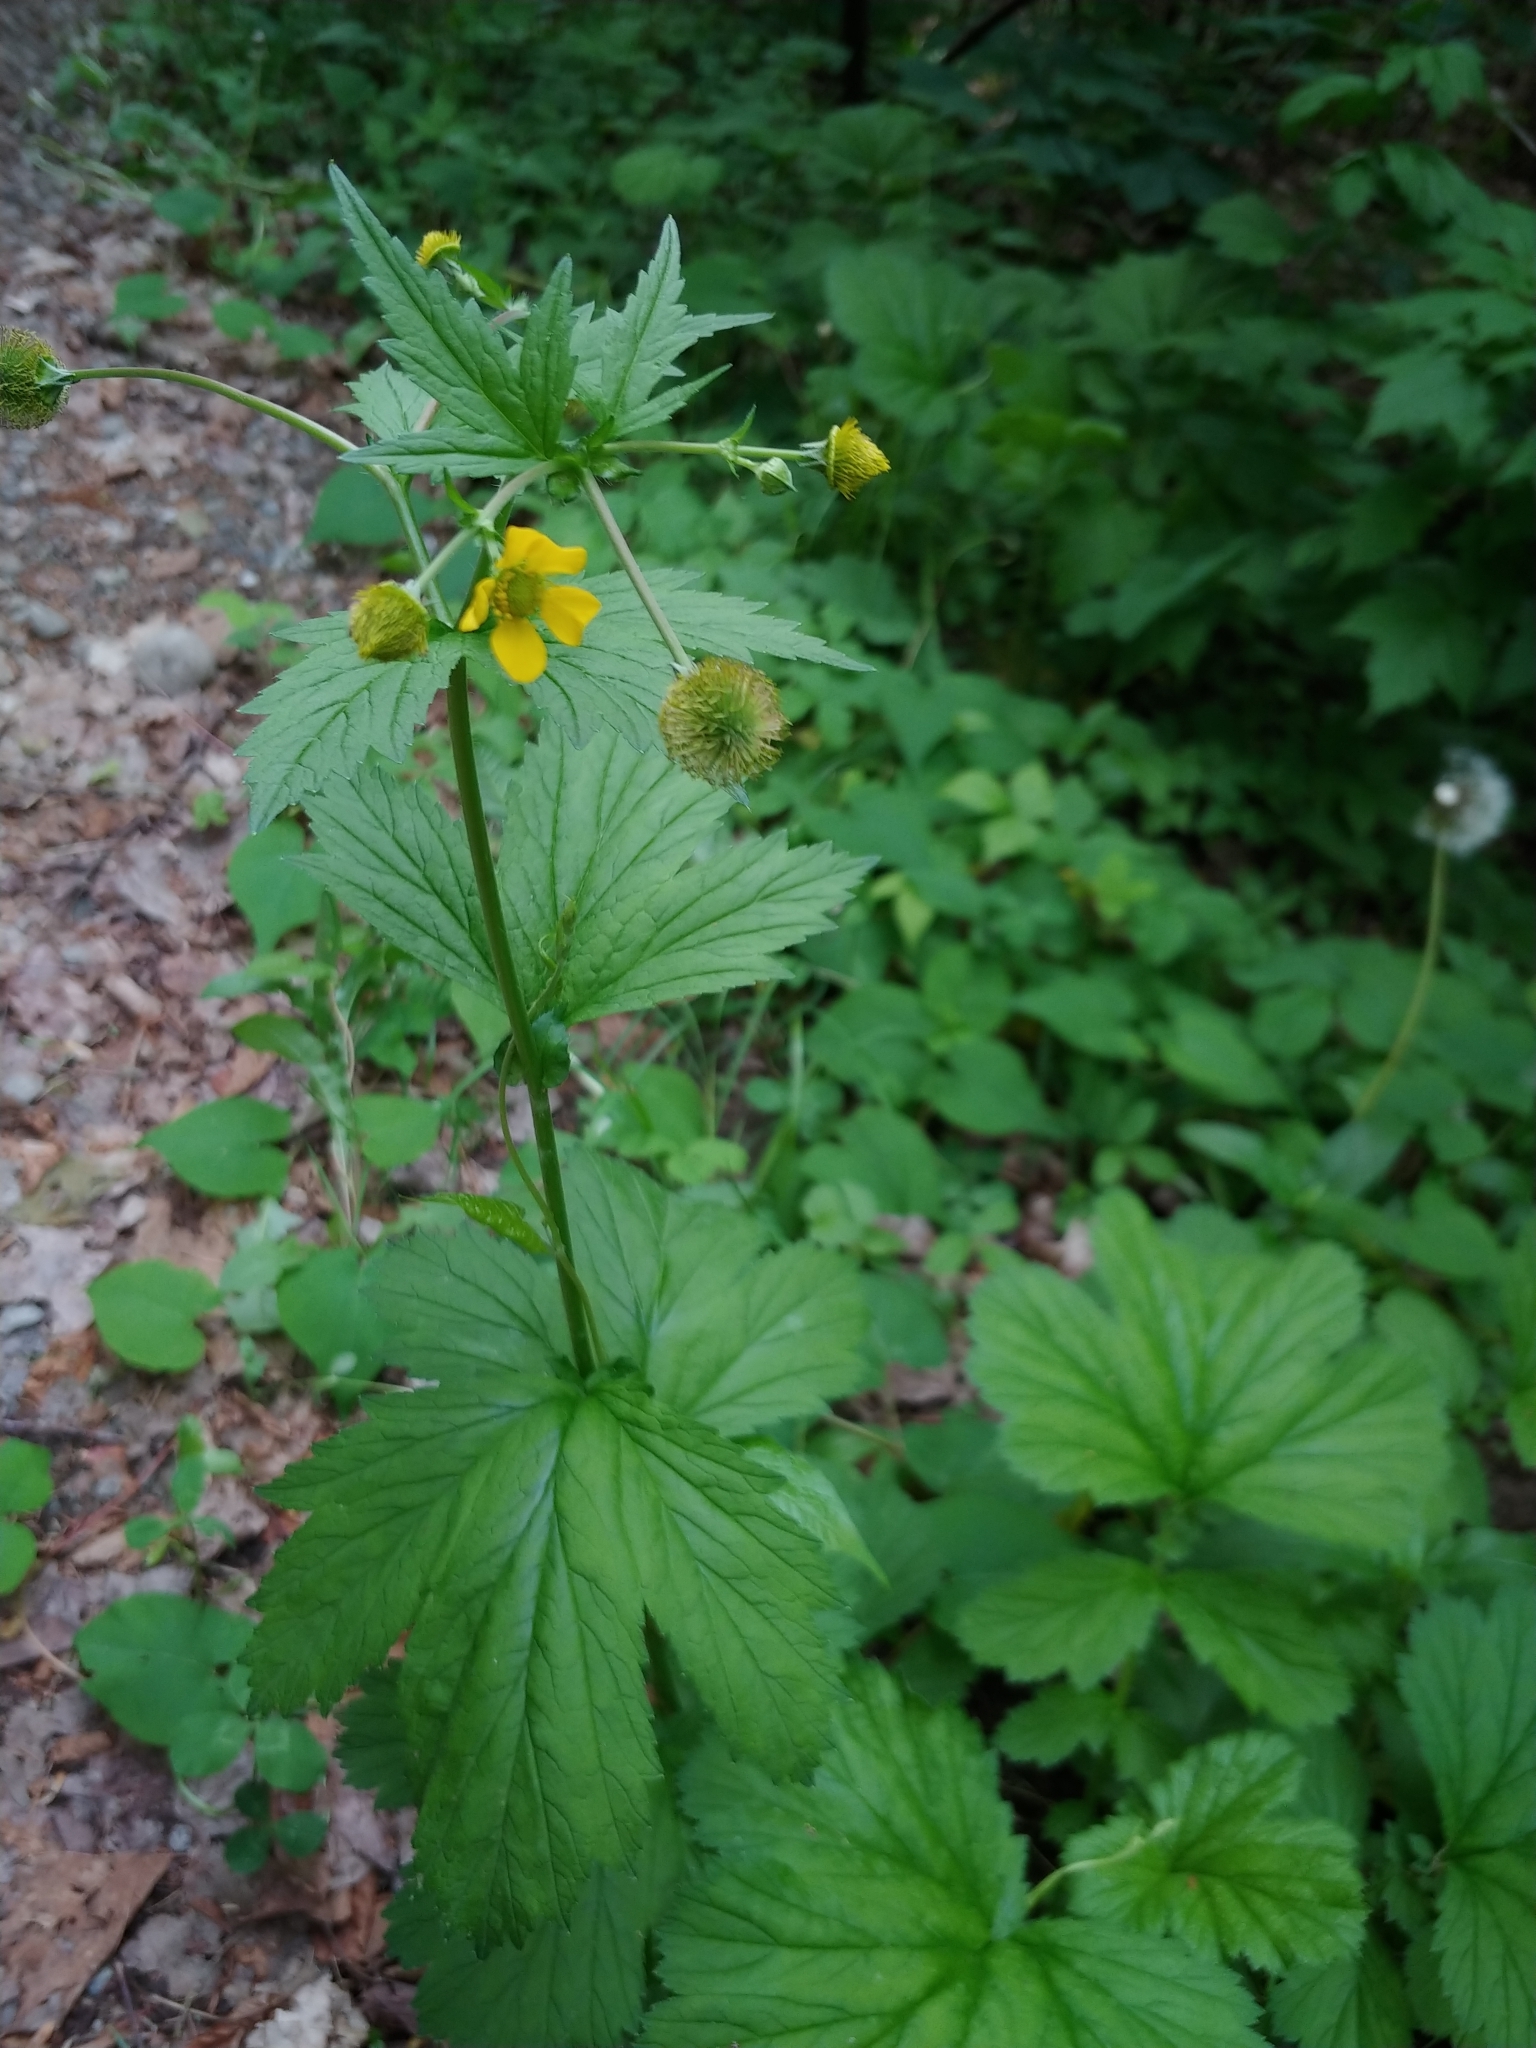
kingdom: Plantae
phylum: Tracheophyta
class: Magnoliopsida
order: Rosales
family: Rosaceae
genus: Geum
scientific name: Geum macrophyllum
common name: Large-leaved avens
